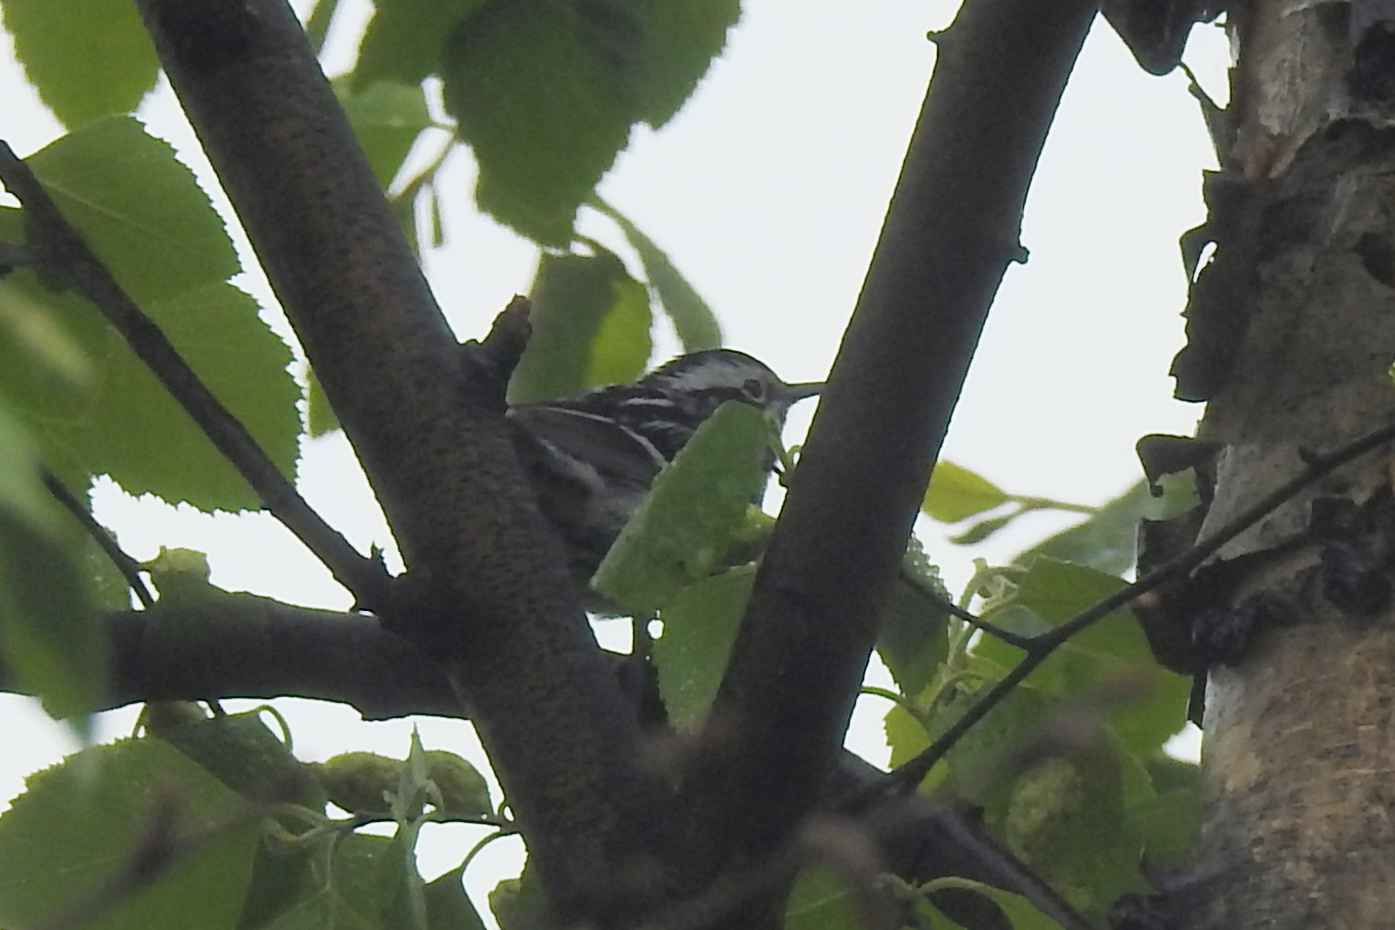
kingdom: Animalia
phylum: Chordata
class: Aves
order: Passeriformes
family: Parulidae
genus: Mniotilta
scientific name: Mniotilta varia
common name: Black-and-white warbler
